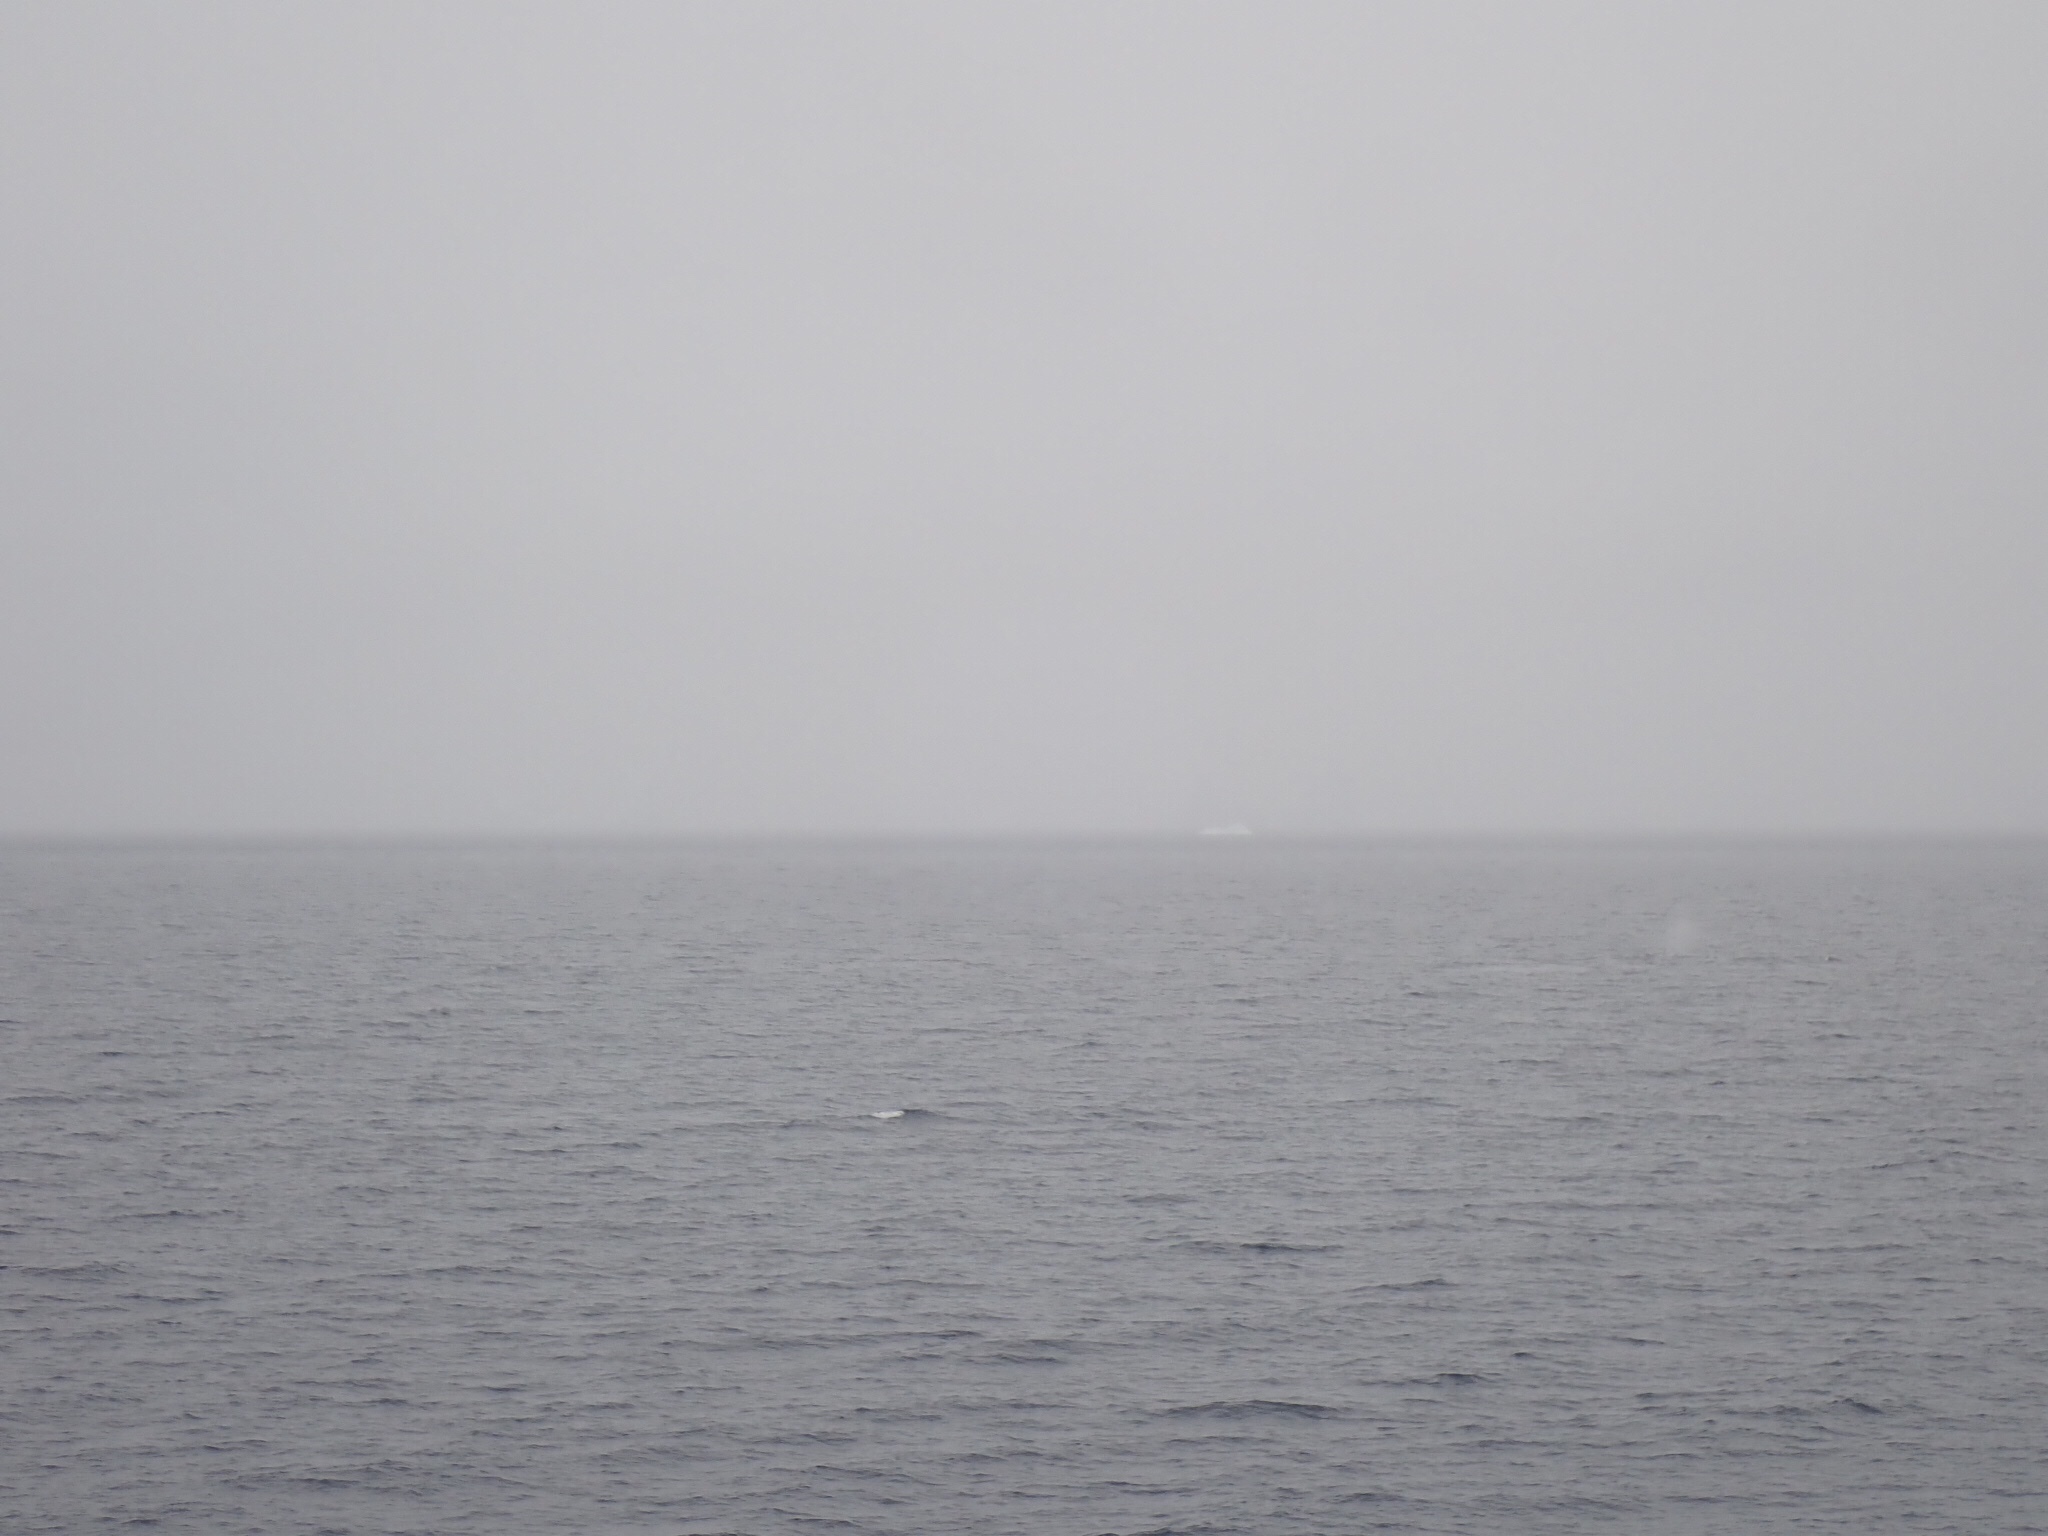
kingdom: Animalia
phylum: Chordata
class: Mammalia
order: Cetacea
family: Balaenopteridae
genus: Megaptera
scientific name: Megaptera novaeangliae
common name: Humpback whale
